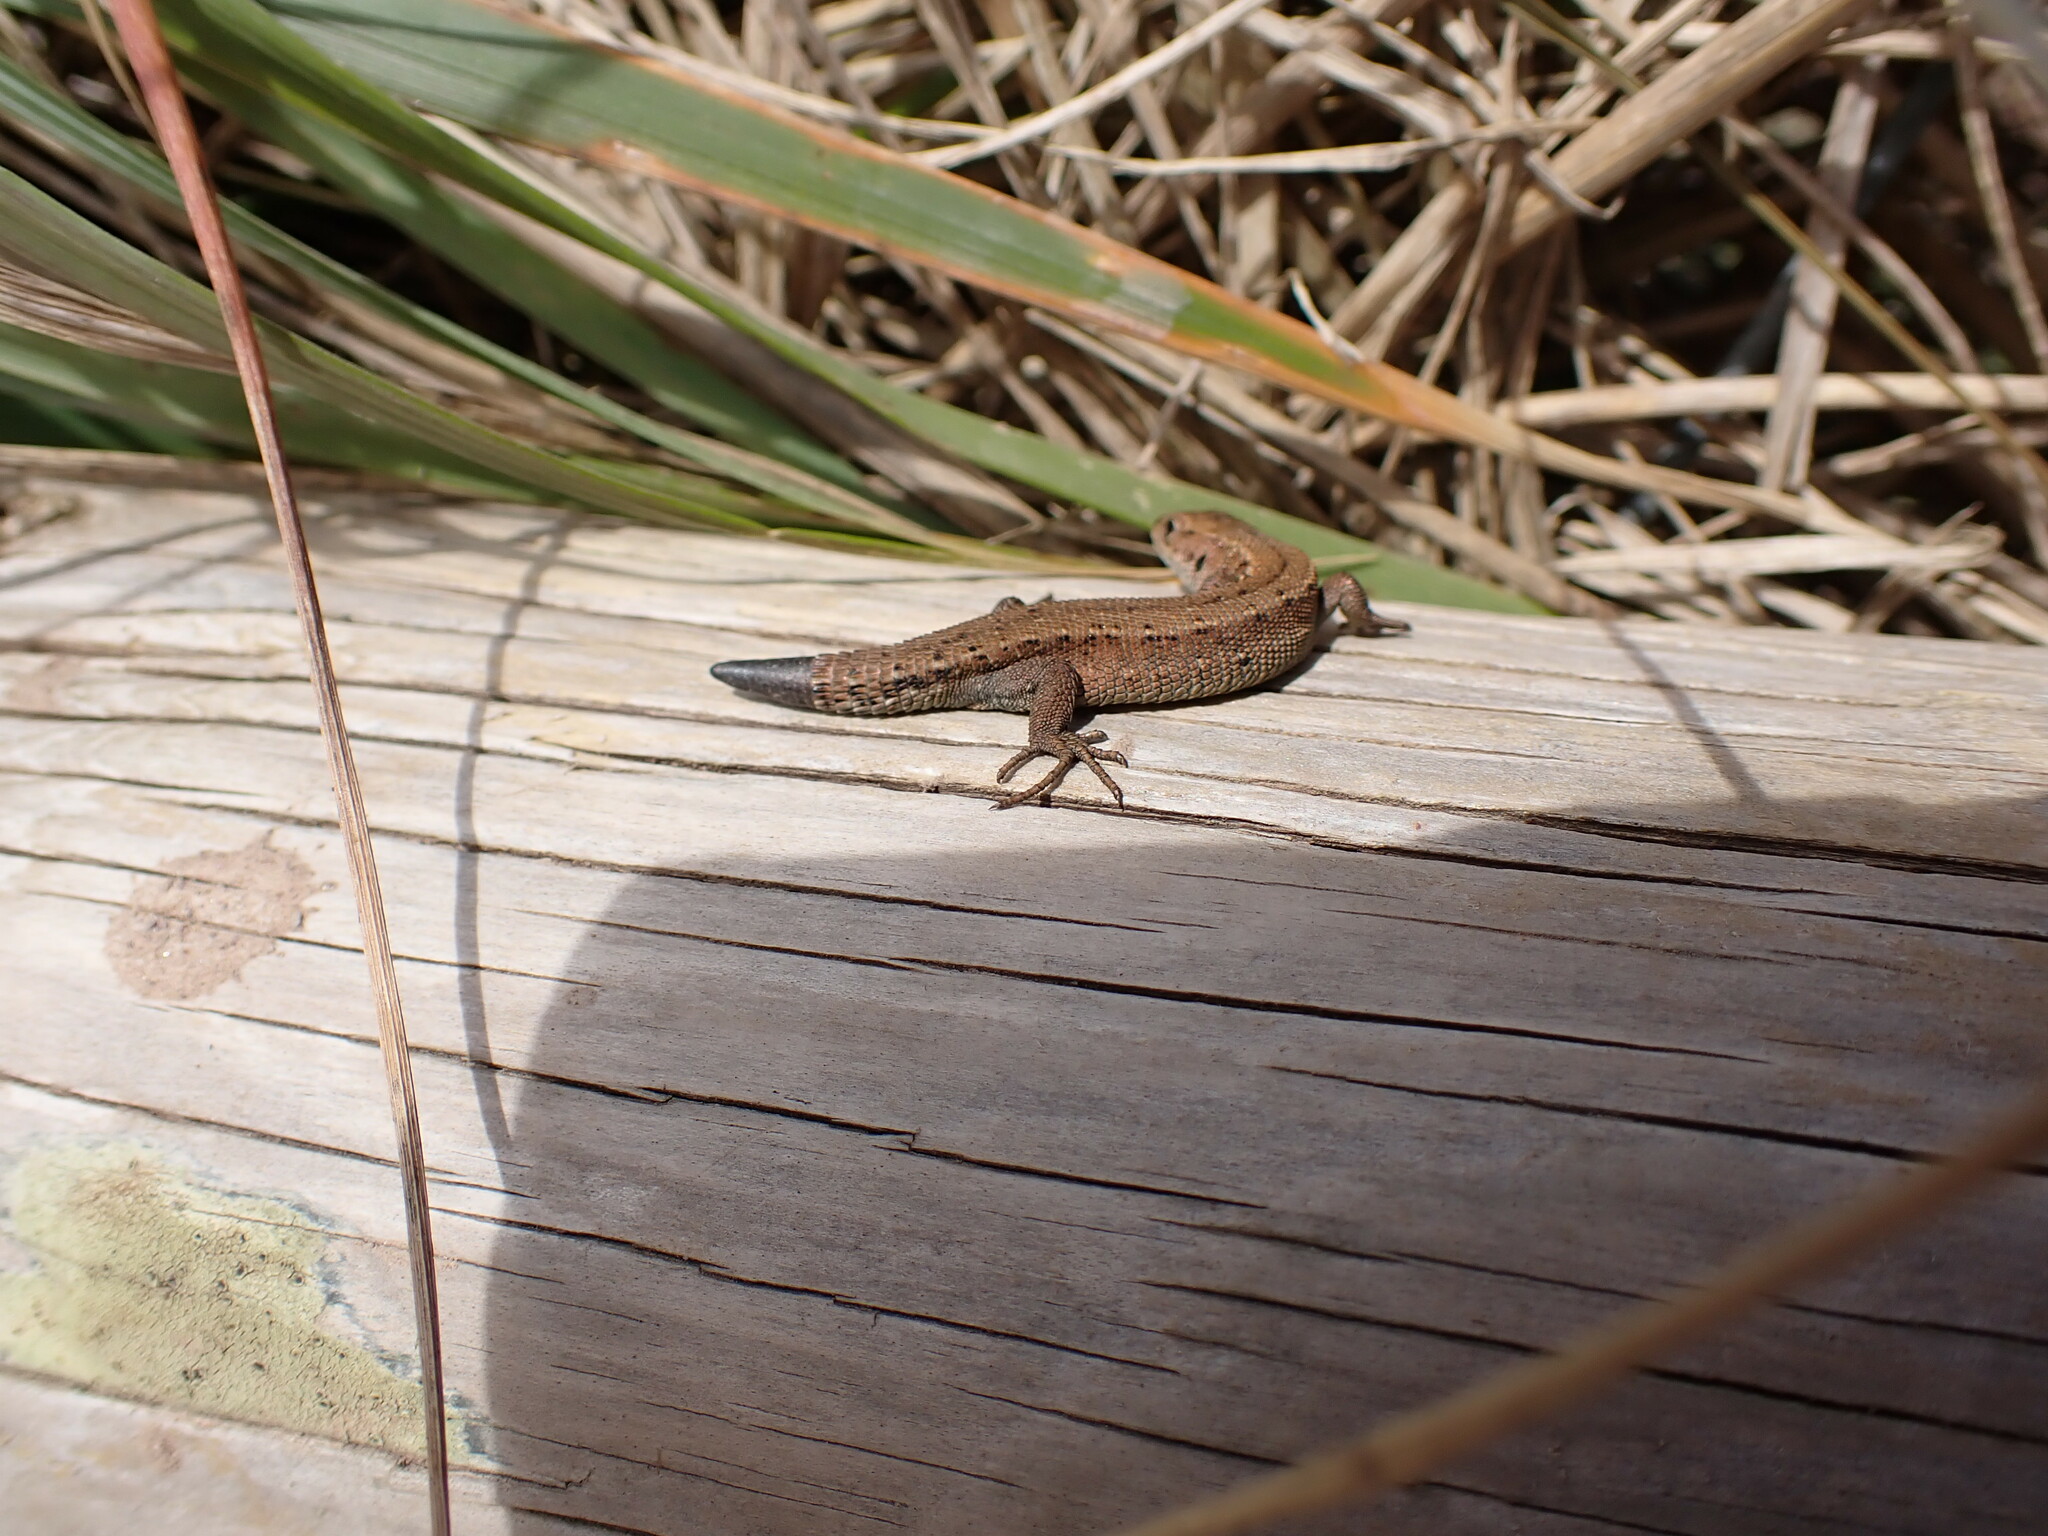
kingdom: Animalia
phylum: Chordata
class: Squamata
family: Lacertidae
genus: Zootoca
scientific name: Zootoca vivipara
